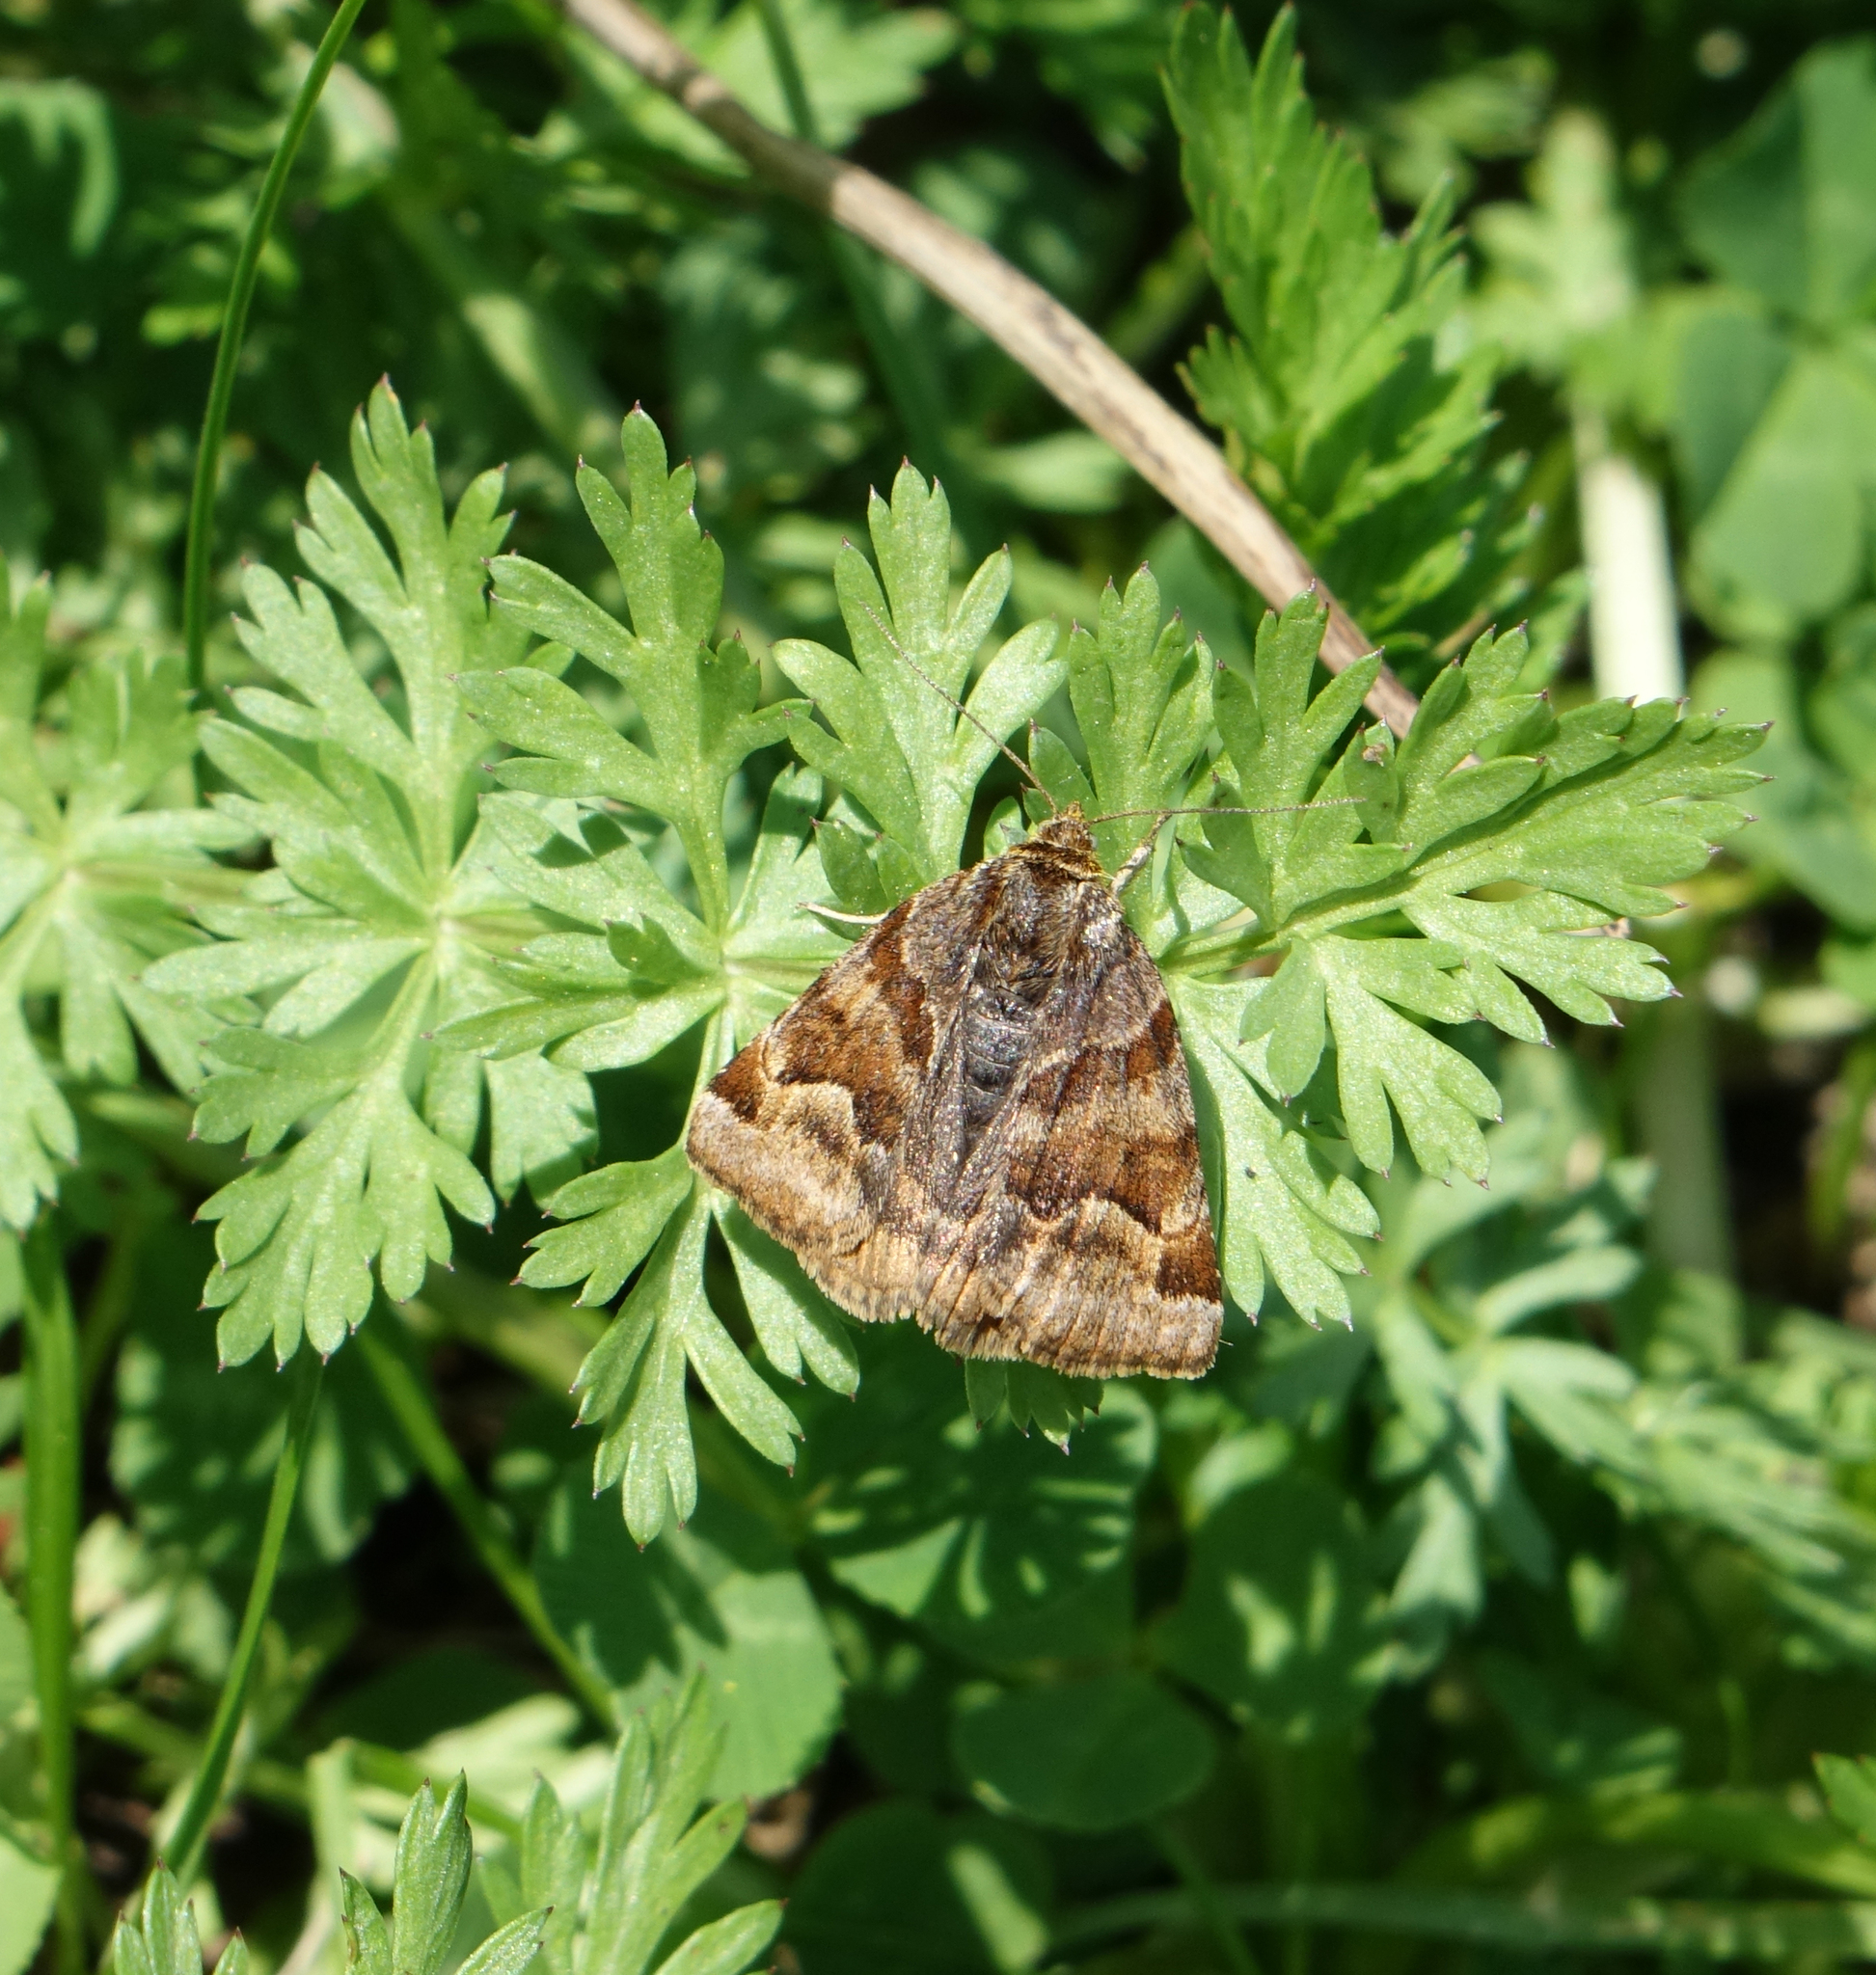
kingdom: Animalia
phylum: Arthropoda
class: Insecta
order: Lepidoptera
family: Erebidae
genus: Euclidia
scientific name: Euclidia glyphica
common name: Burnet companion
